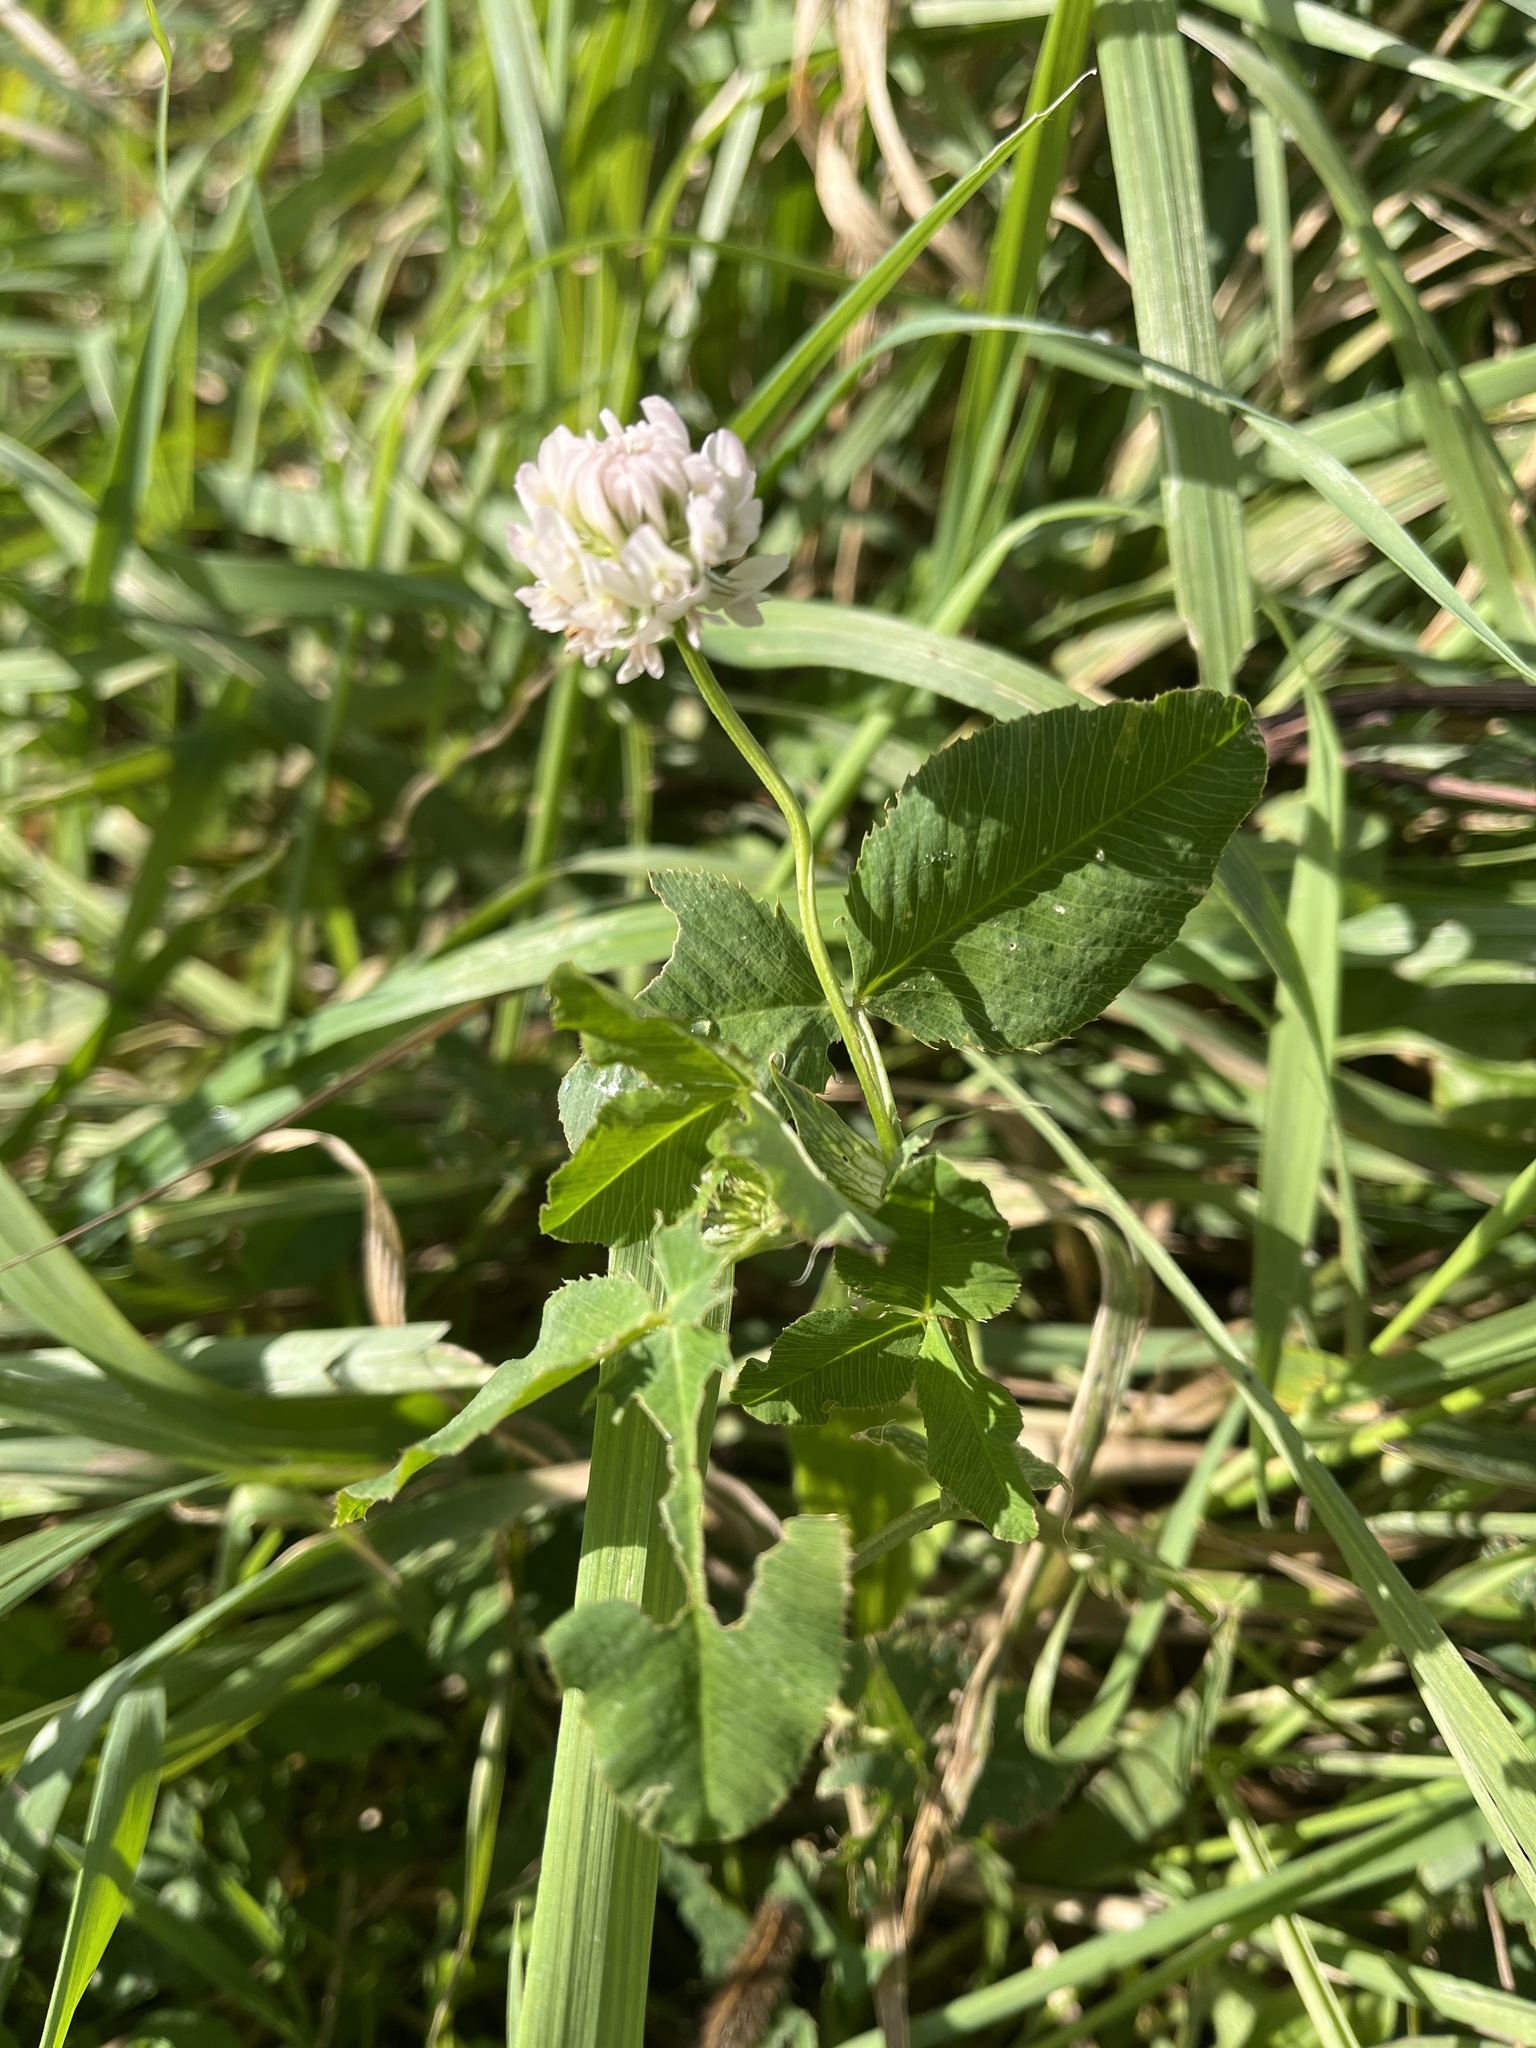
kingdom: Plantae
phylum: Tracheophyta
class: Magnoliopsida
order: Fabales
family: Fabaceae
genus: Trifolium
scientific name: Trifolium hybridum
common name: Alsike clover
